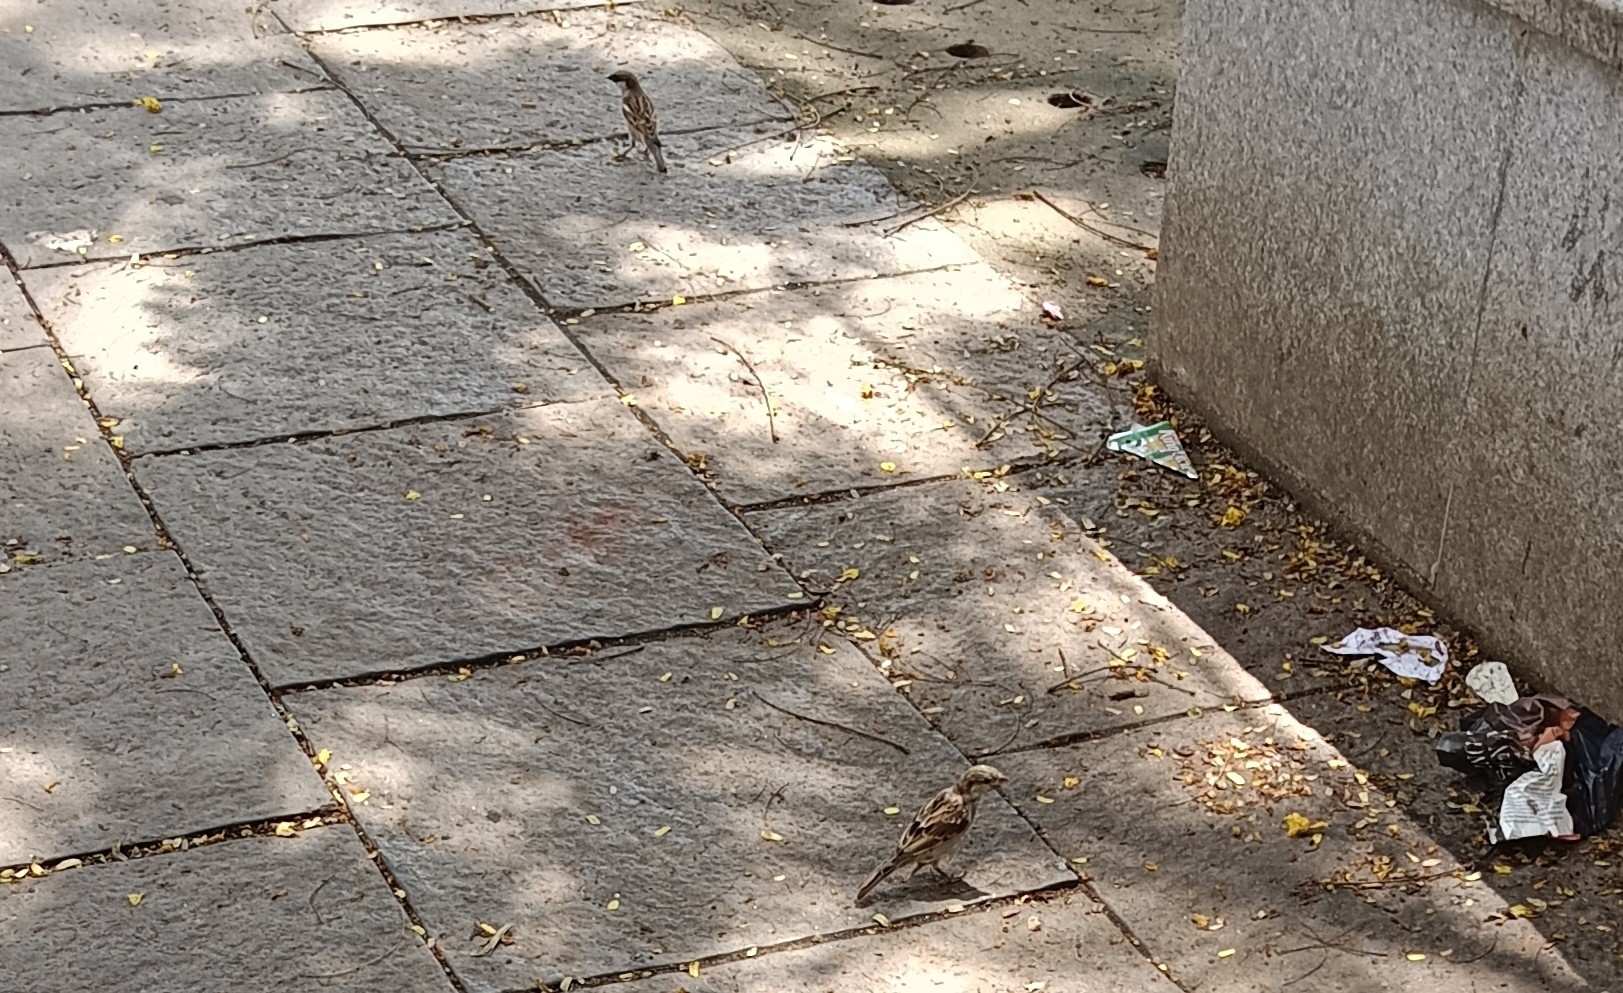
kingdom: Animalia
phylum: Chordata
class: Aves
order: Passeriformes
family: Passeridae
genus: Passer
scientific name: Passer domesticus
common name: House sparrow
